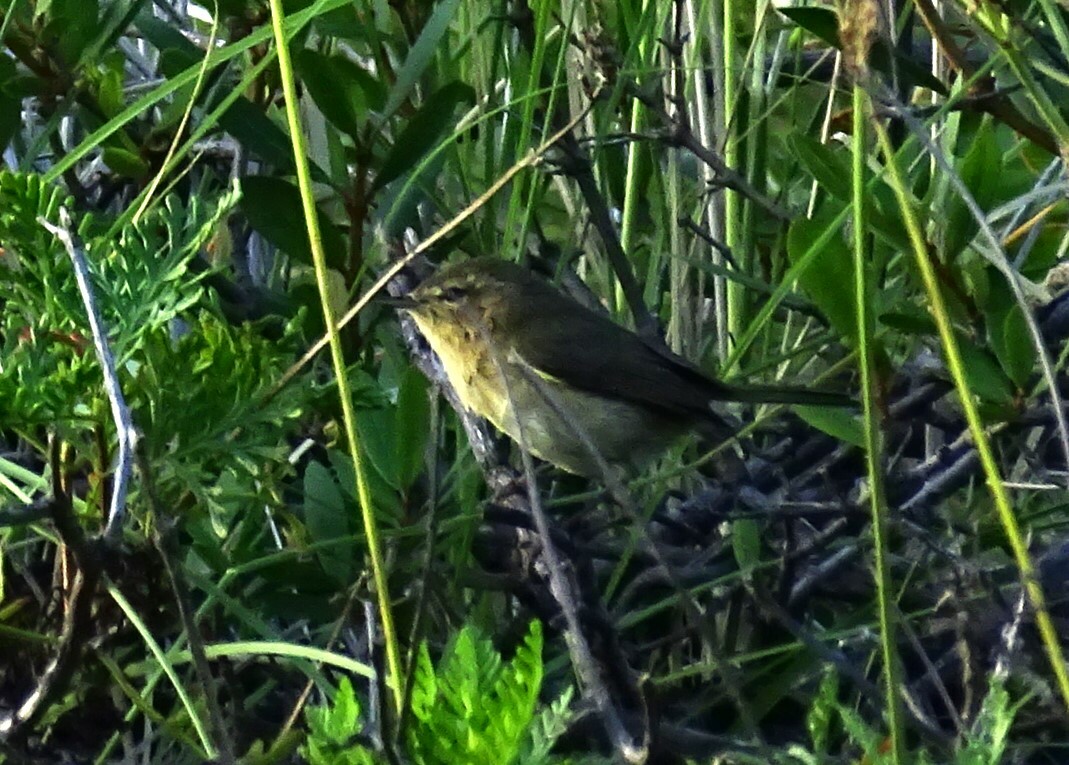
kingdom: Animalia
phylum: Chordata
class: Aves
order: Passeriformes
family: Phylloscopidae
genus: Phylloscopus
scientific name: Phylloscopus canariensis
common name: Canary islands chiffchaff
